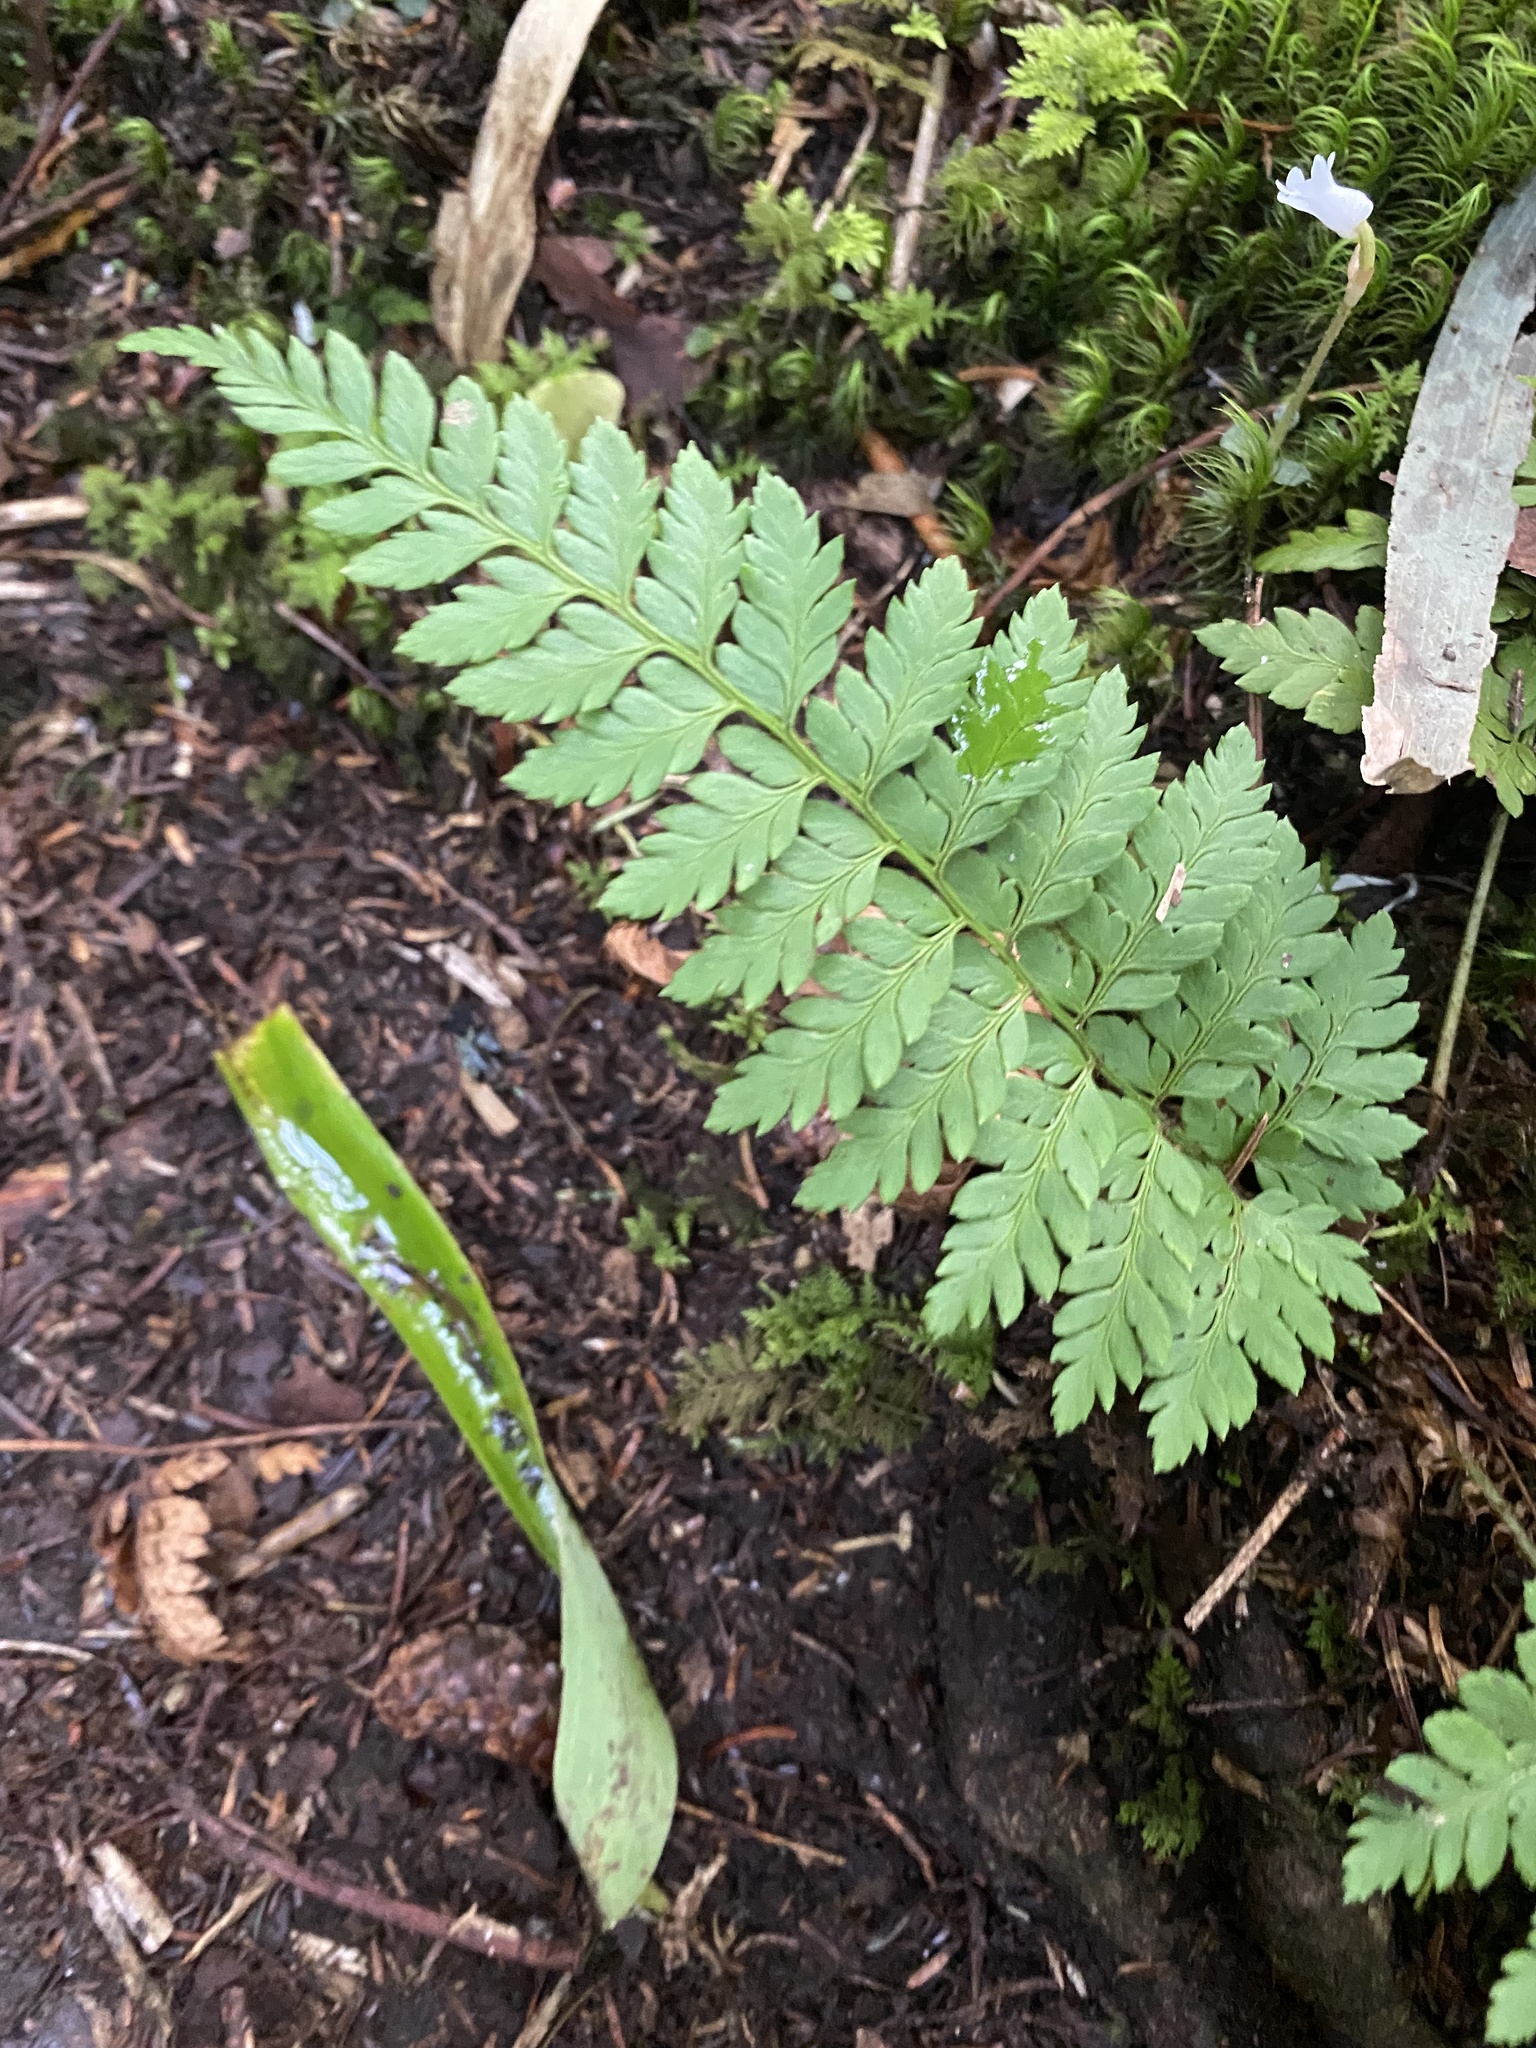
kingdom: Plantae
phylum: Tracheophyta
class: Polypodiopsida
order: Polypodiales
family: Dryopteridaceae
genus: Arachniodes
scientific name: Arachniodes mutica
